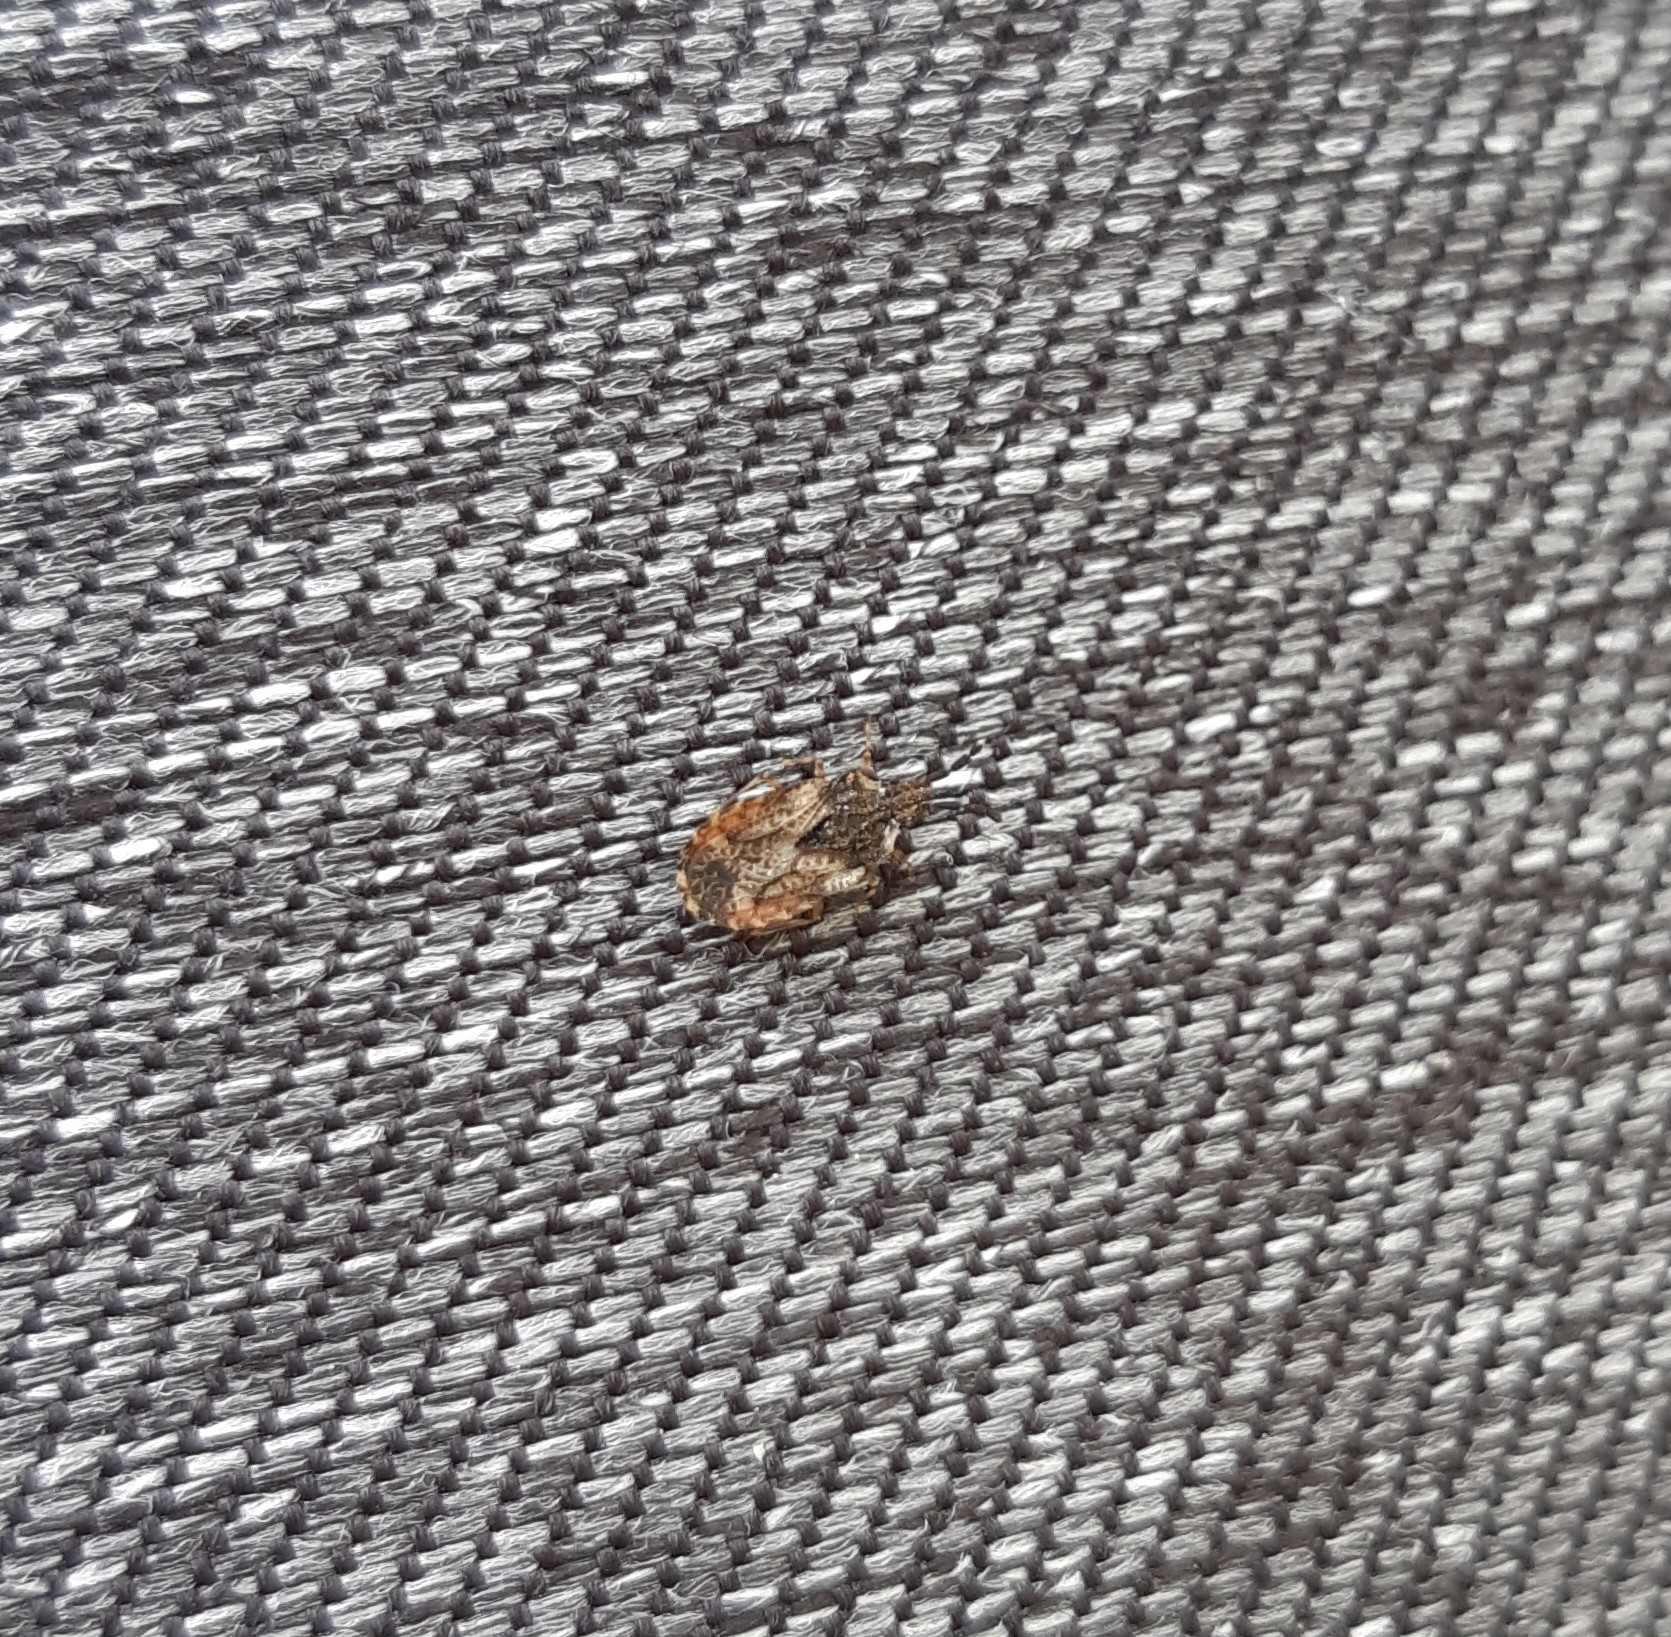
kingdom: Animalia
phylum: Arthropoda
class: Insecta
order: Hemiptera
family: Aradidae
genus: Aradus
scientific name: Aradus depressus
